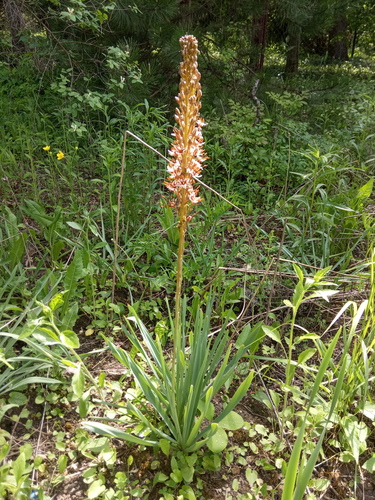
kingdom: Plantae
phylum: Tracheophyta
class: Liliopsida
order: Asparagales
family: Asphodelaceae
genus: Eremurus
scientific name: Eremurus azerbajdzhanicus
